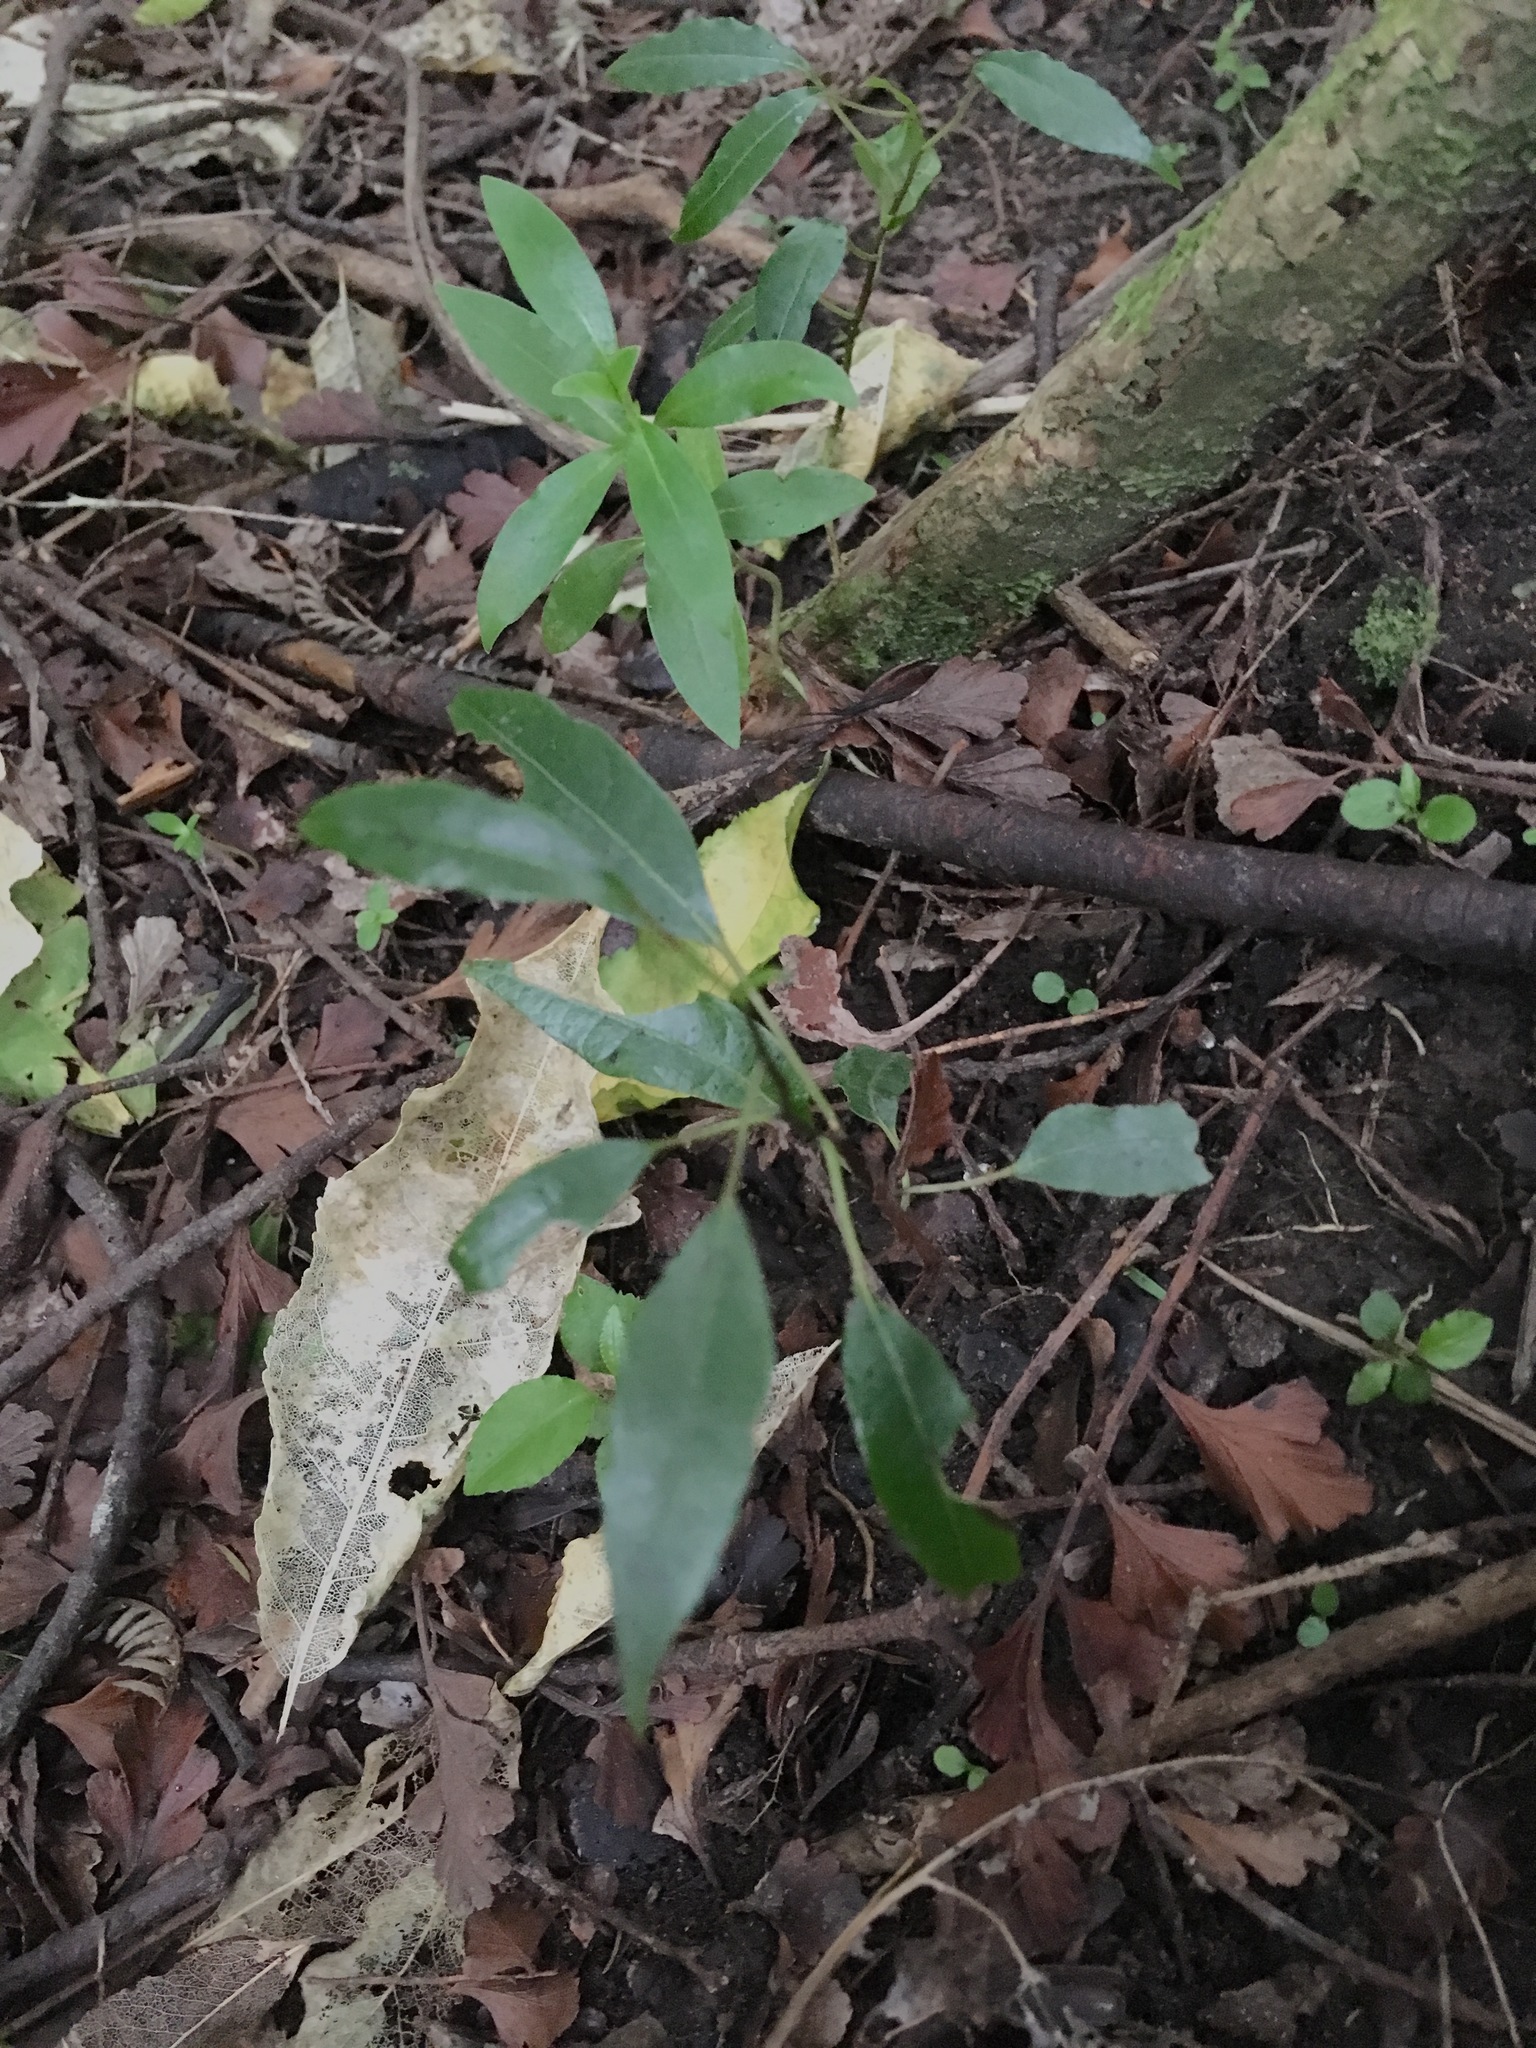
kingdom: Plantae
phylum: Tracheophyta
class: Magnoliopsida
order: Malpighiales
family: Passifloraceae
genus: Passiflora
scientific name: Passiflora tetrandra
